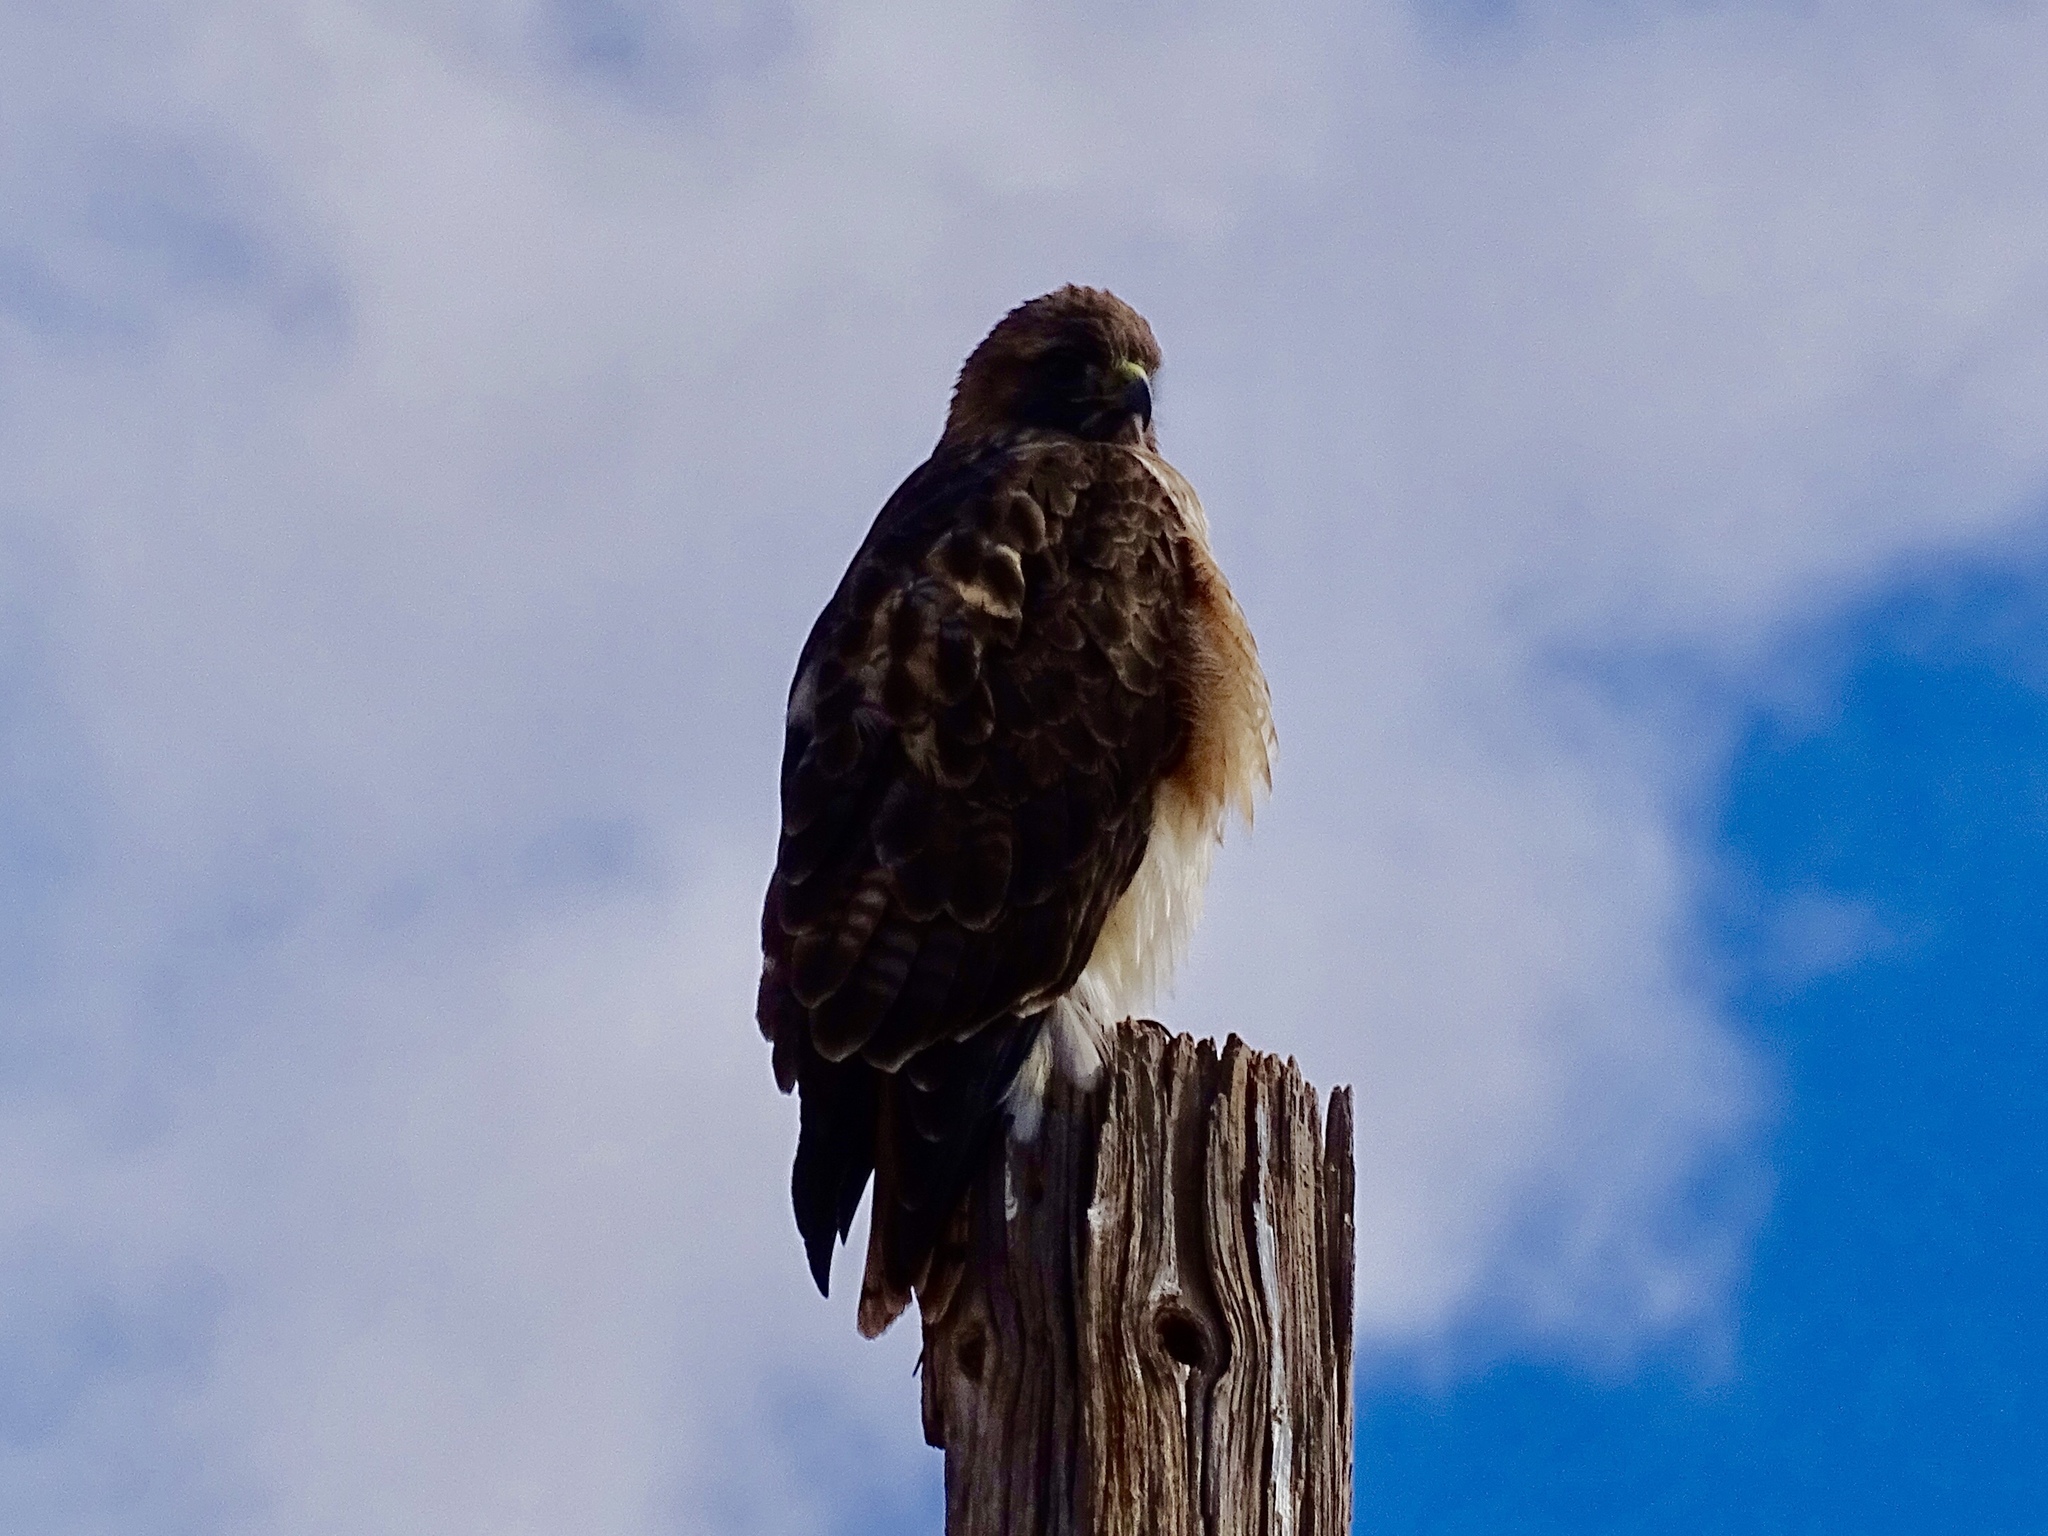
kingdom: Animalia
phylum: Chordata
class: Aves
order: Accipitriformes
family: Accipitridae
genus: Buteo
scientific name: Buteo jamaicensis
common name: Red-tailed hawk
